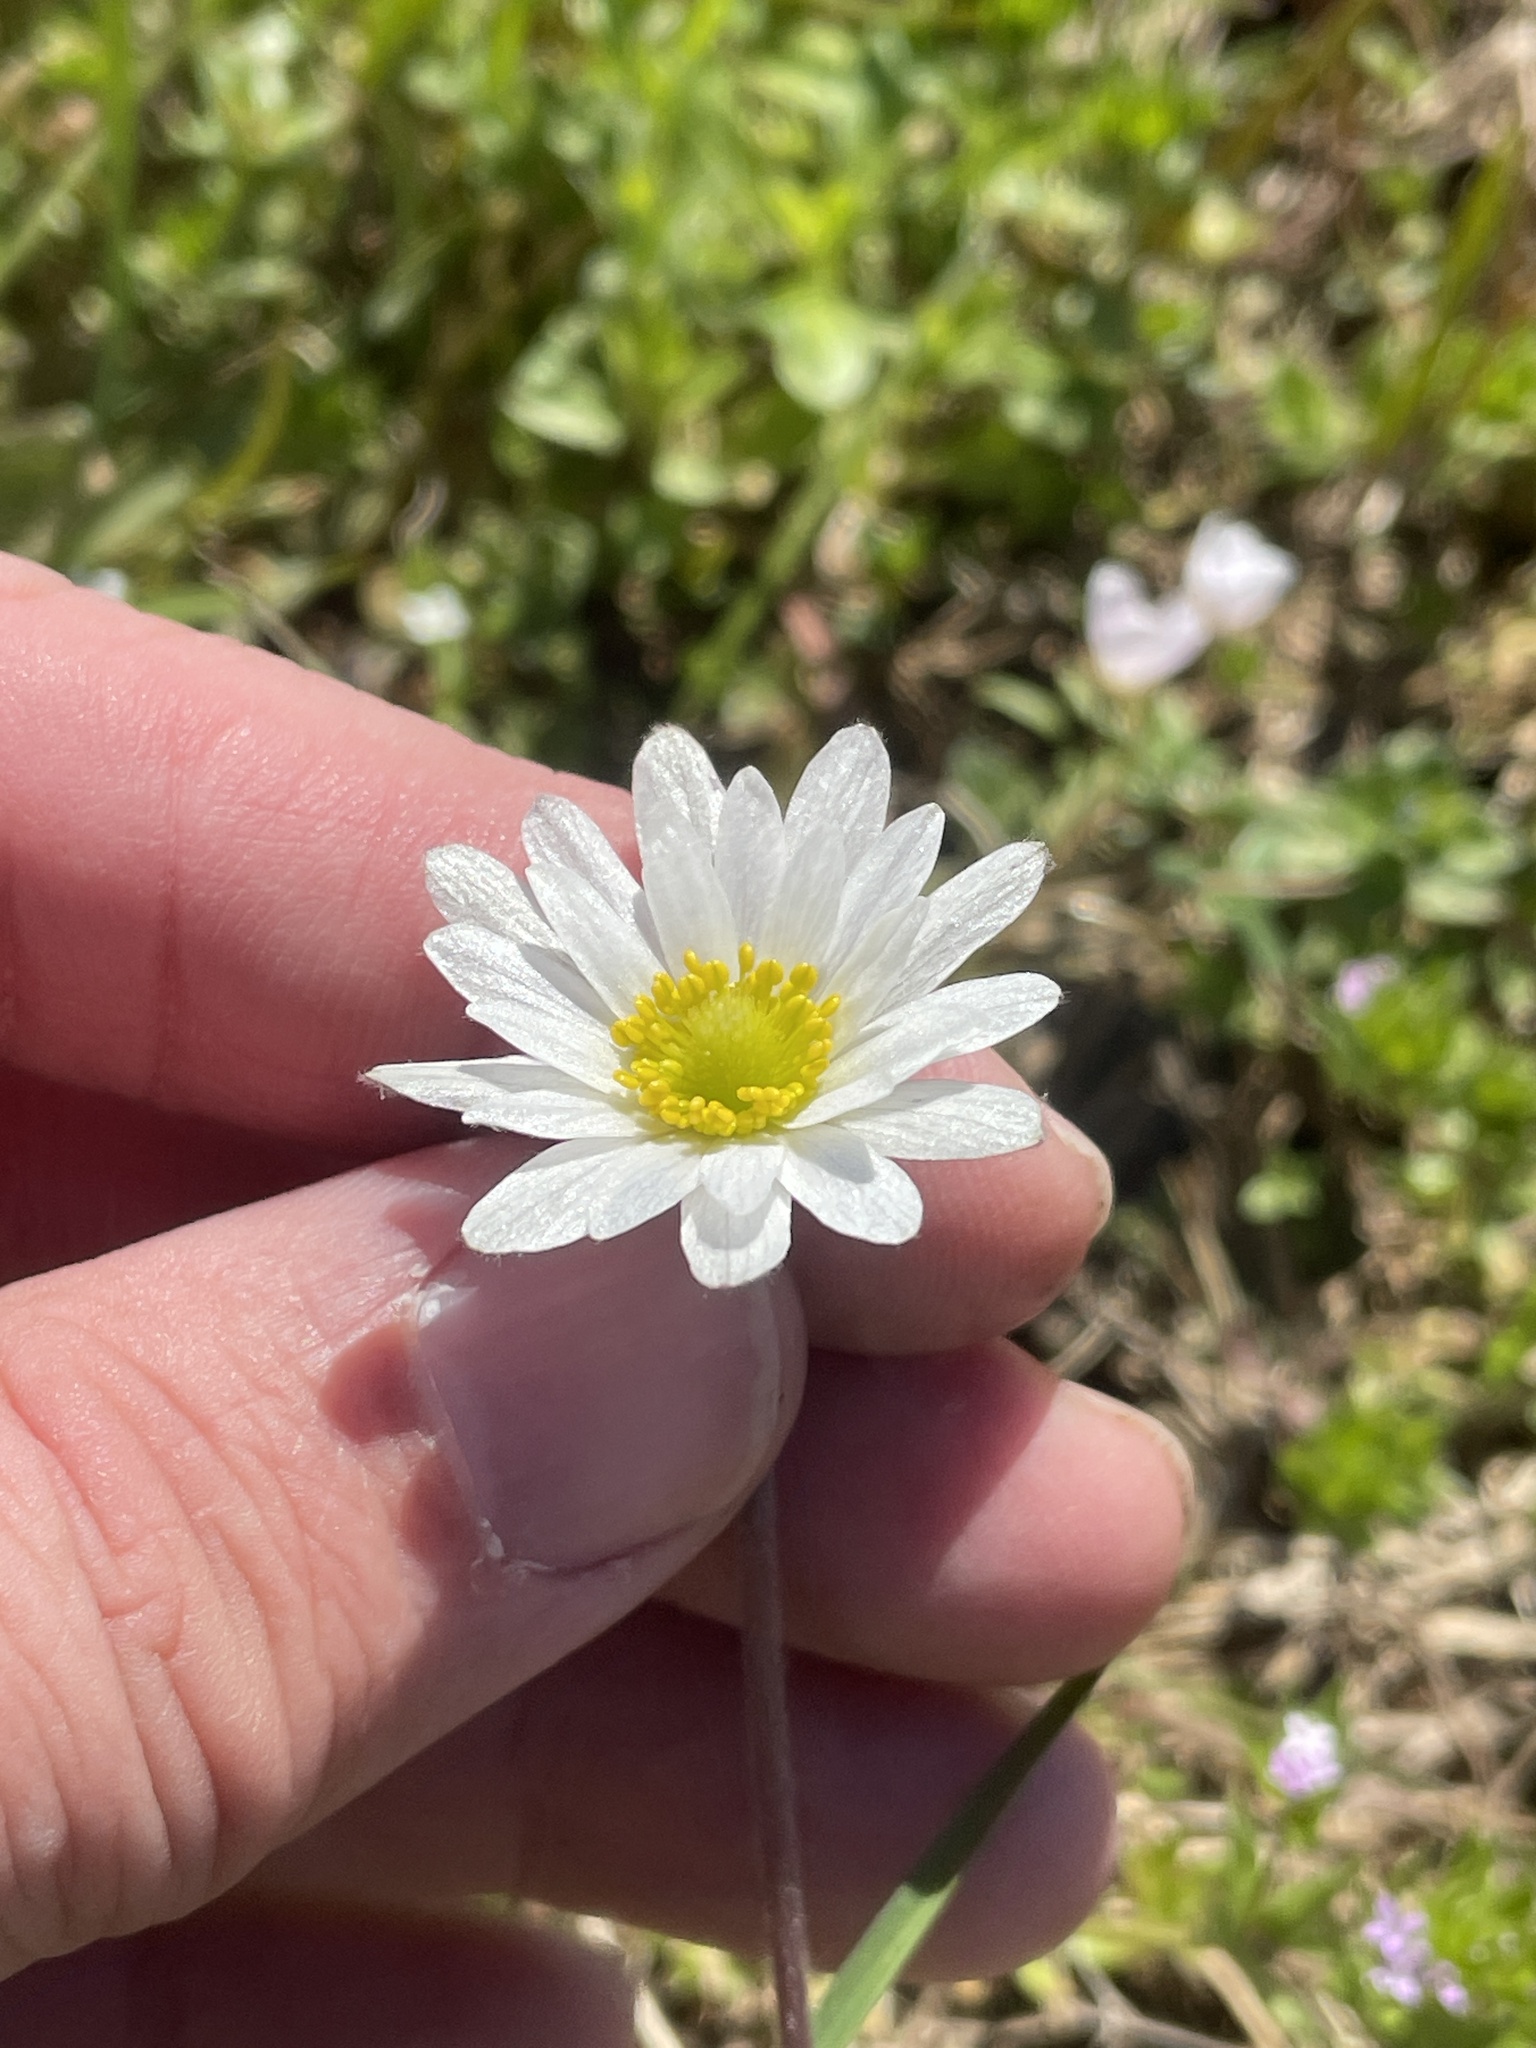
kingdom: Plantae
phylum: Tracheophyta
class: Magnoliopsida
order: Ranunculales
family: Ranunculaceae
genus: Anemone
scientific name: Anemone caroliniana
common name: Carolina anemone
